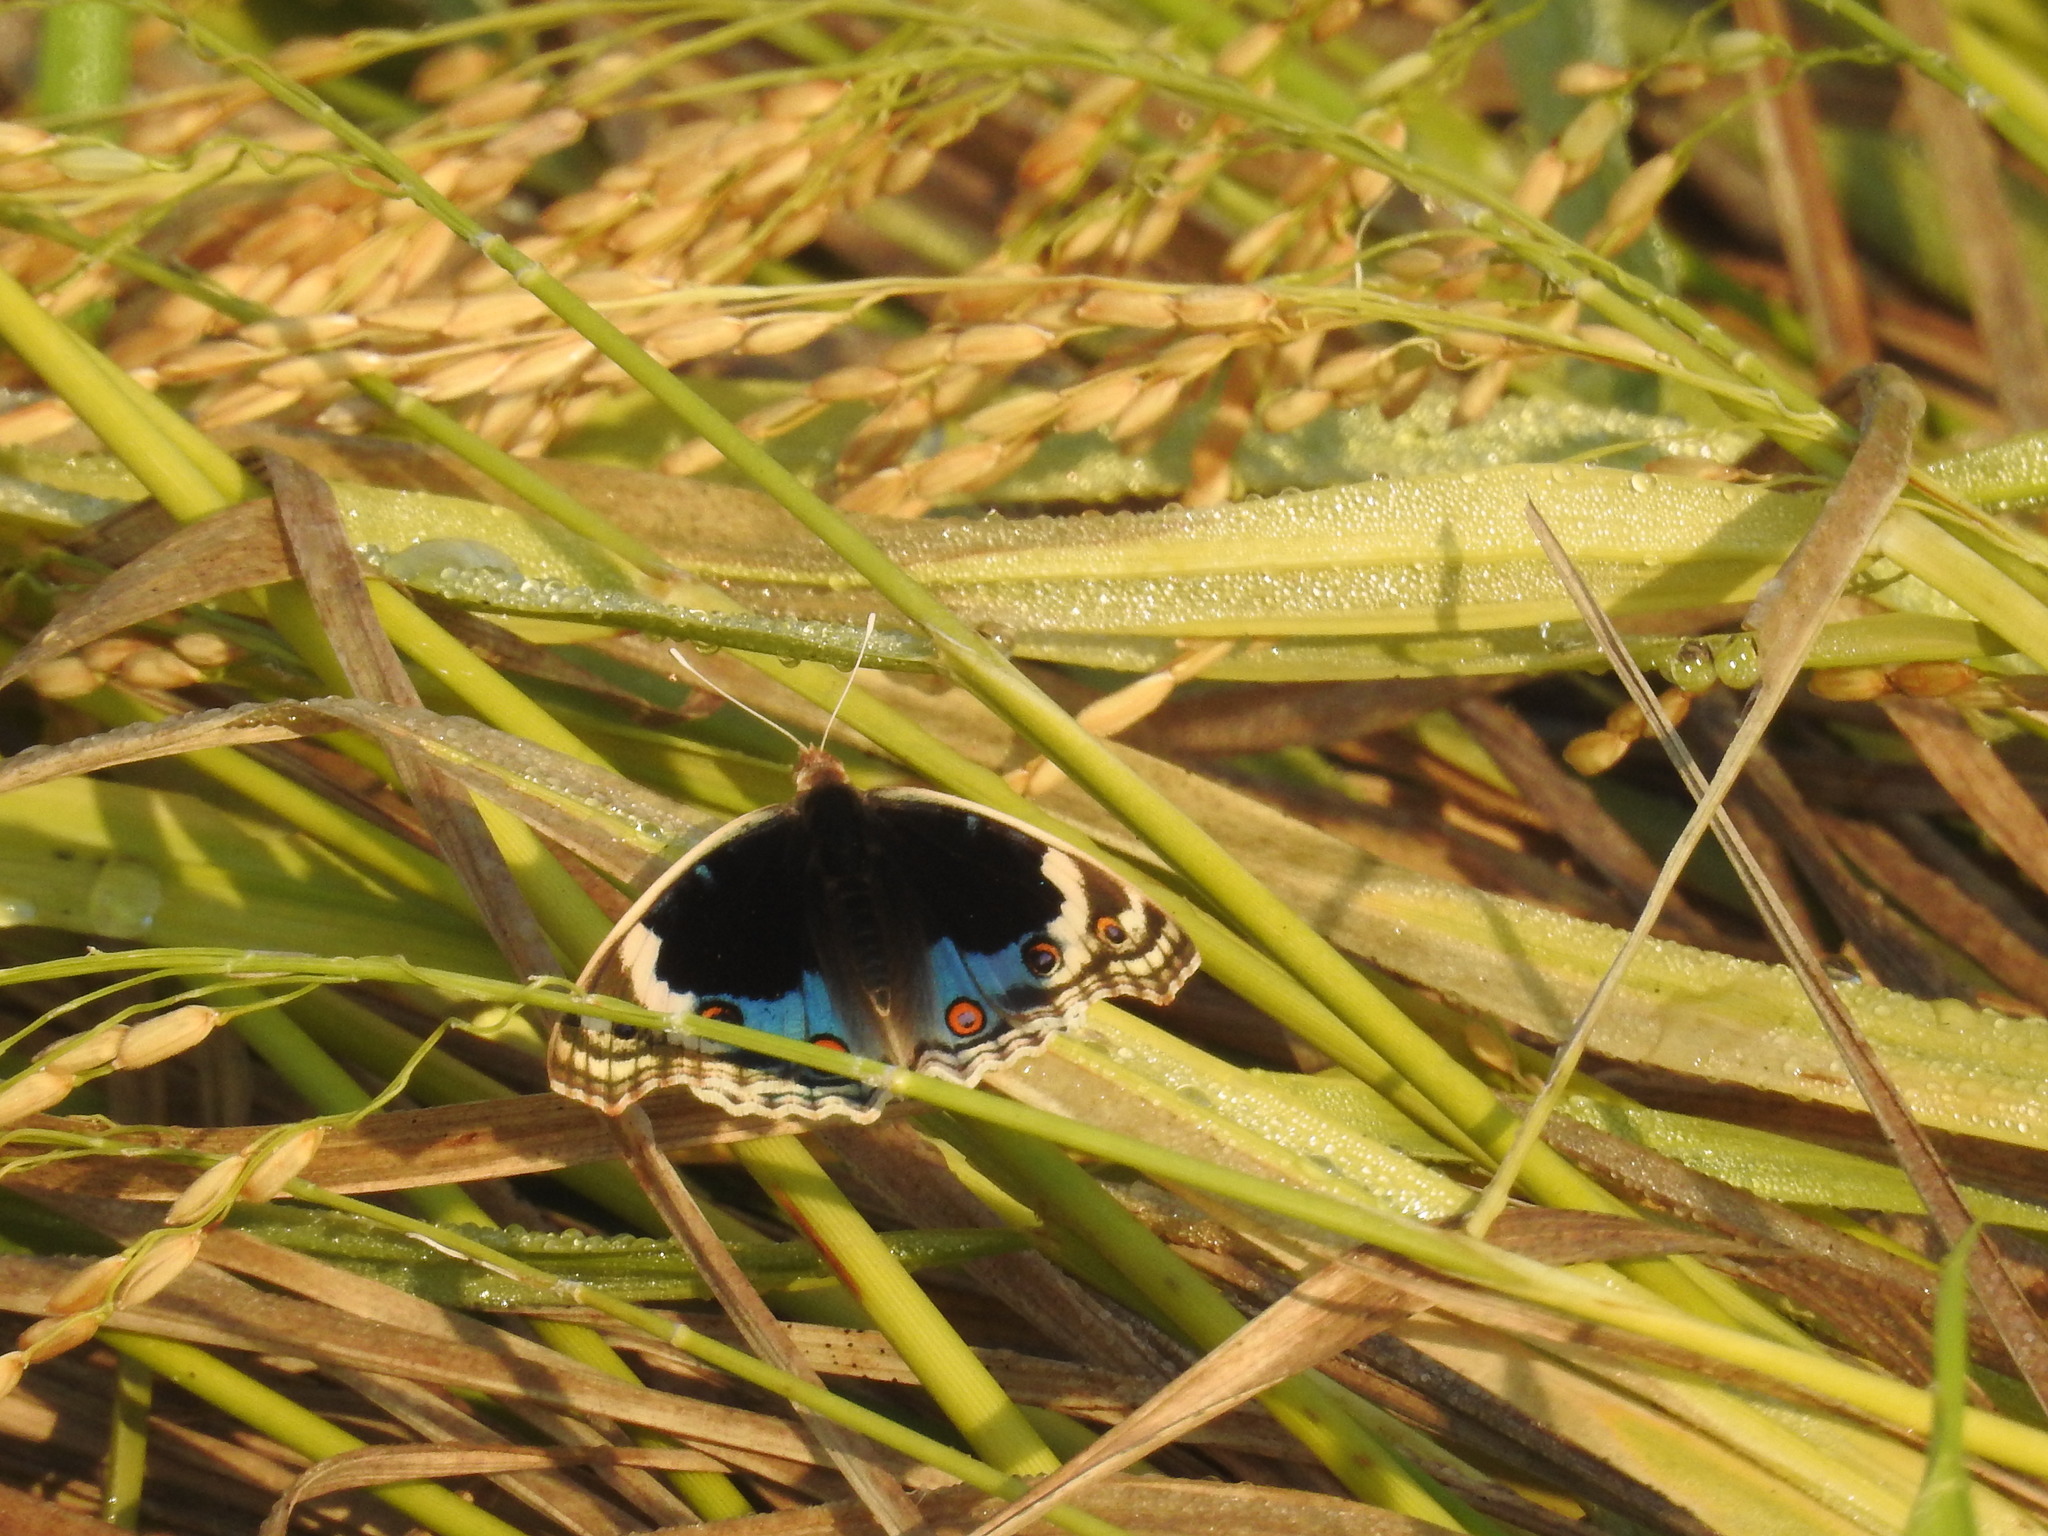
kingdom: Animalia
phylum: Arthropoda
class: Insecta
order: Lepidoptera
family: Nymphalidae
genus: Junonia
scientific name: Junonia orithya
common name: Blue pansy
